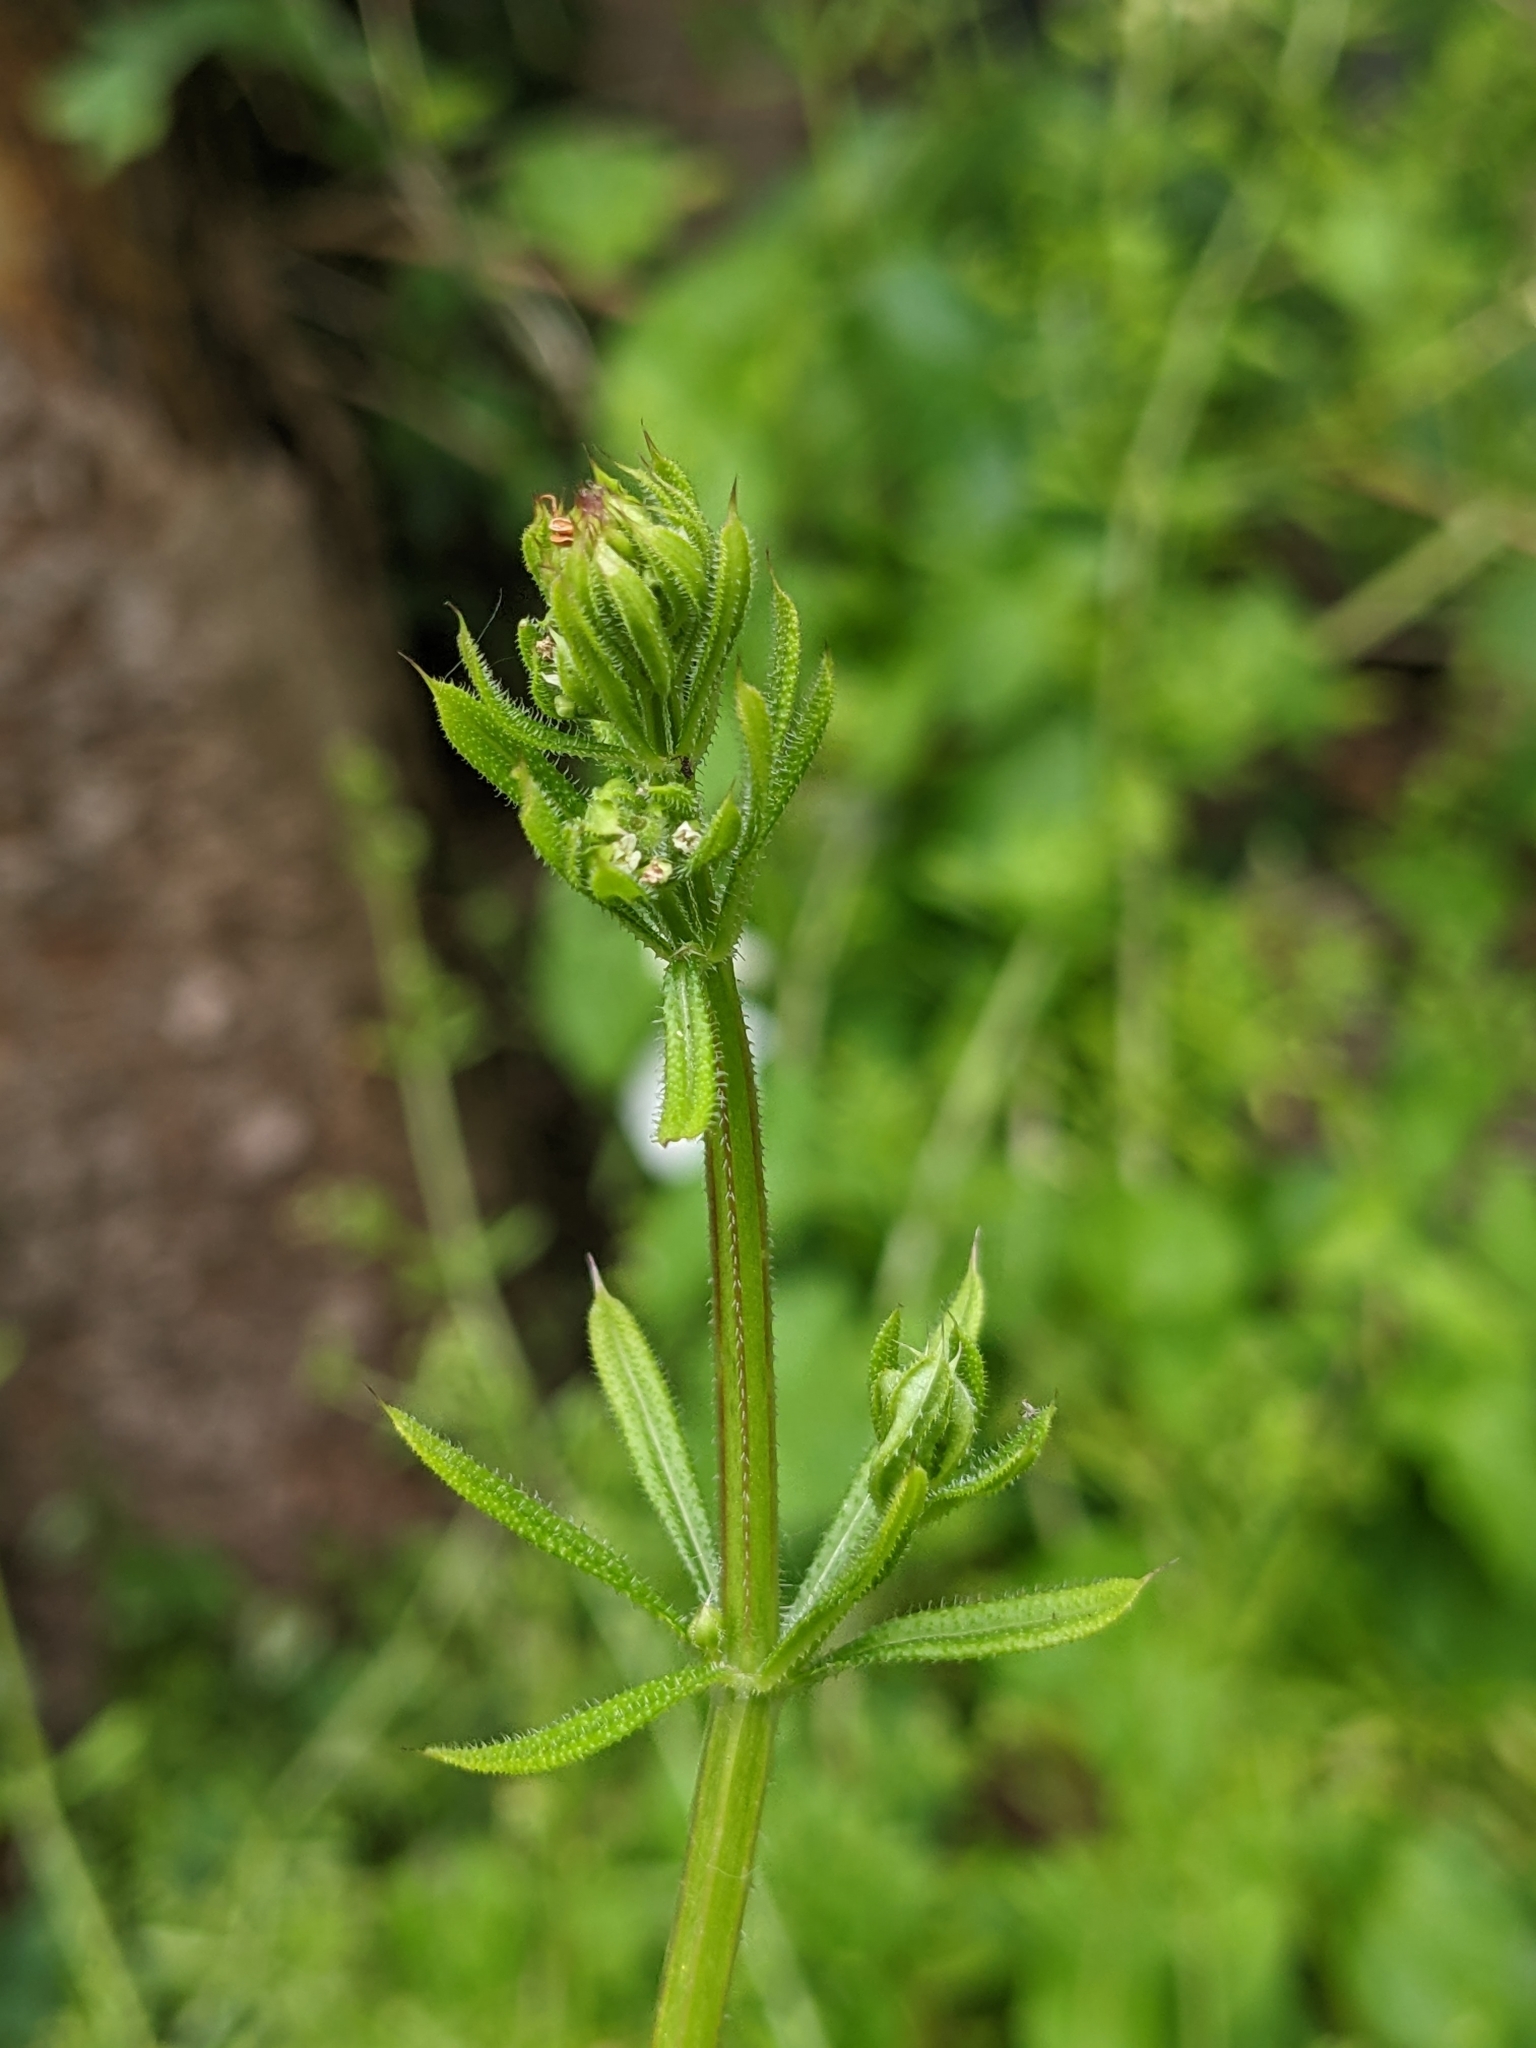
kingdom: Plantae
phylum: Tracheophyta
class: Magnoliopsida
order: Gentianales
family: Rubiaceae
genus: Galium
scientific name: Galium aparine
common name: Cleavers
